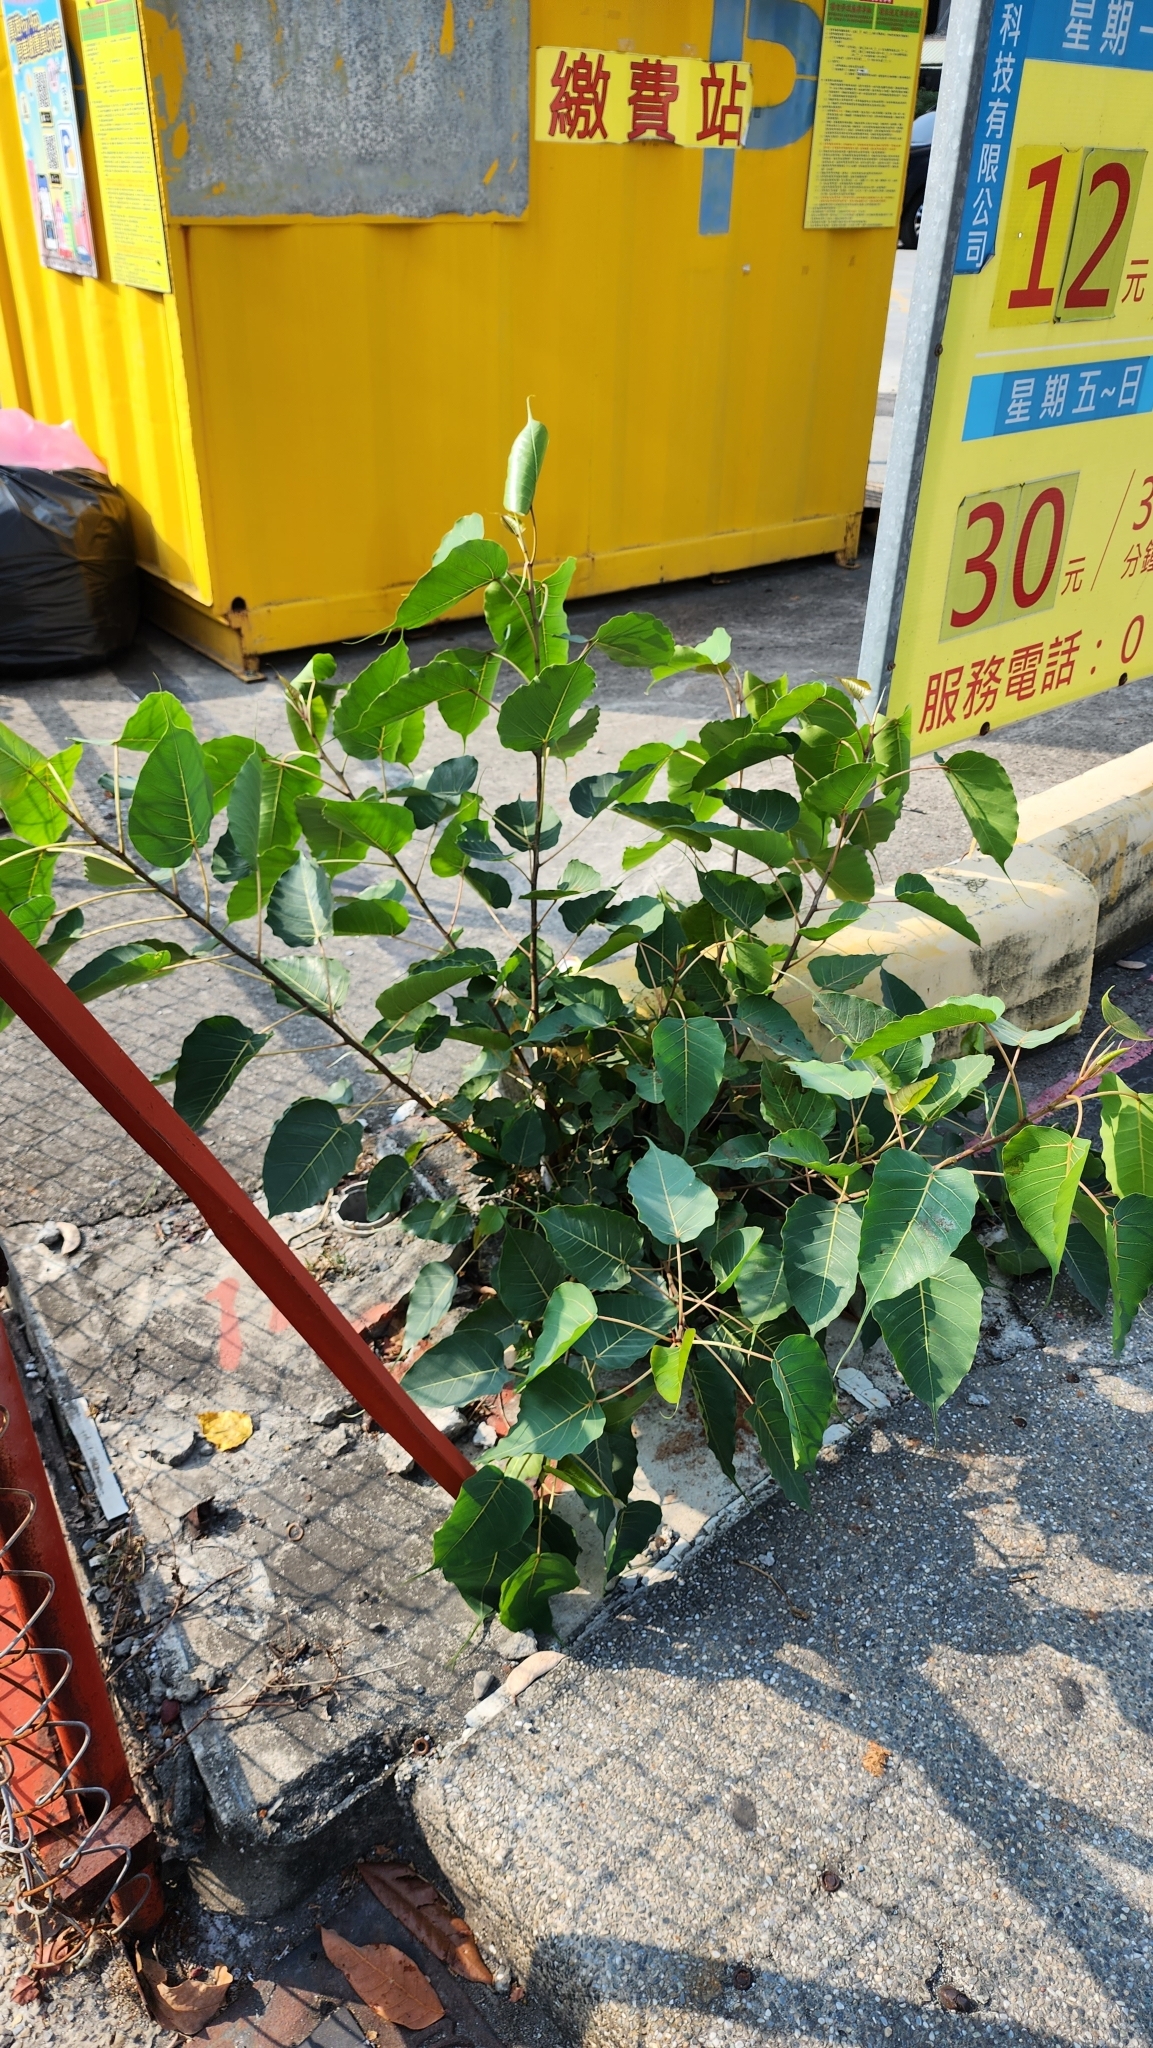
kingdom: Plantae
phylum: Tracheophyta
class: Magnoliopsida
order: Rosales
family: Moraceae
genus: Ficus
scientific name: Ficus religiosa
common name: Bodhi tree
